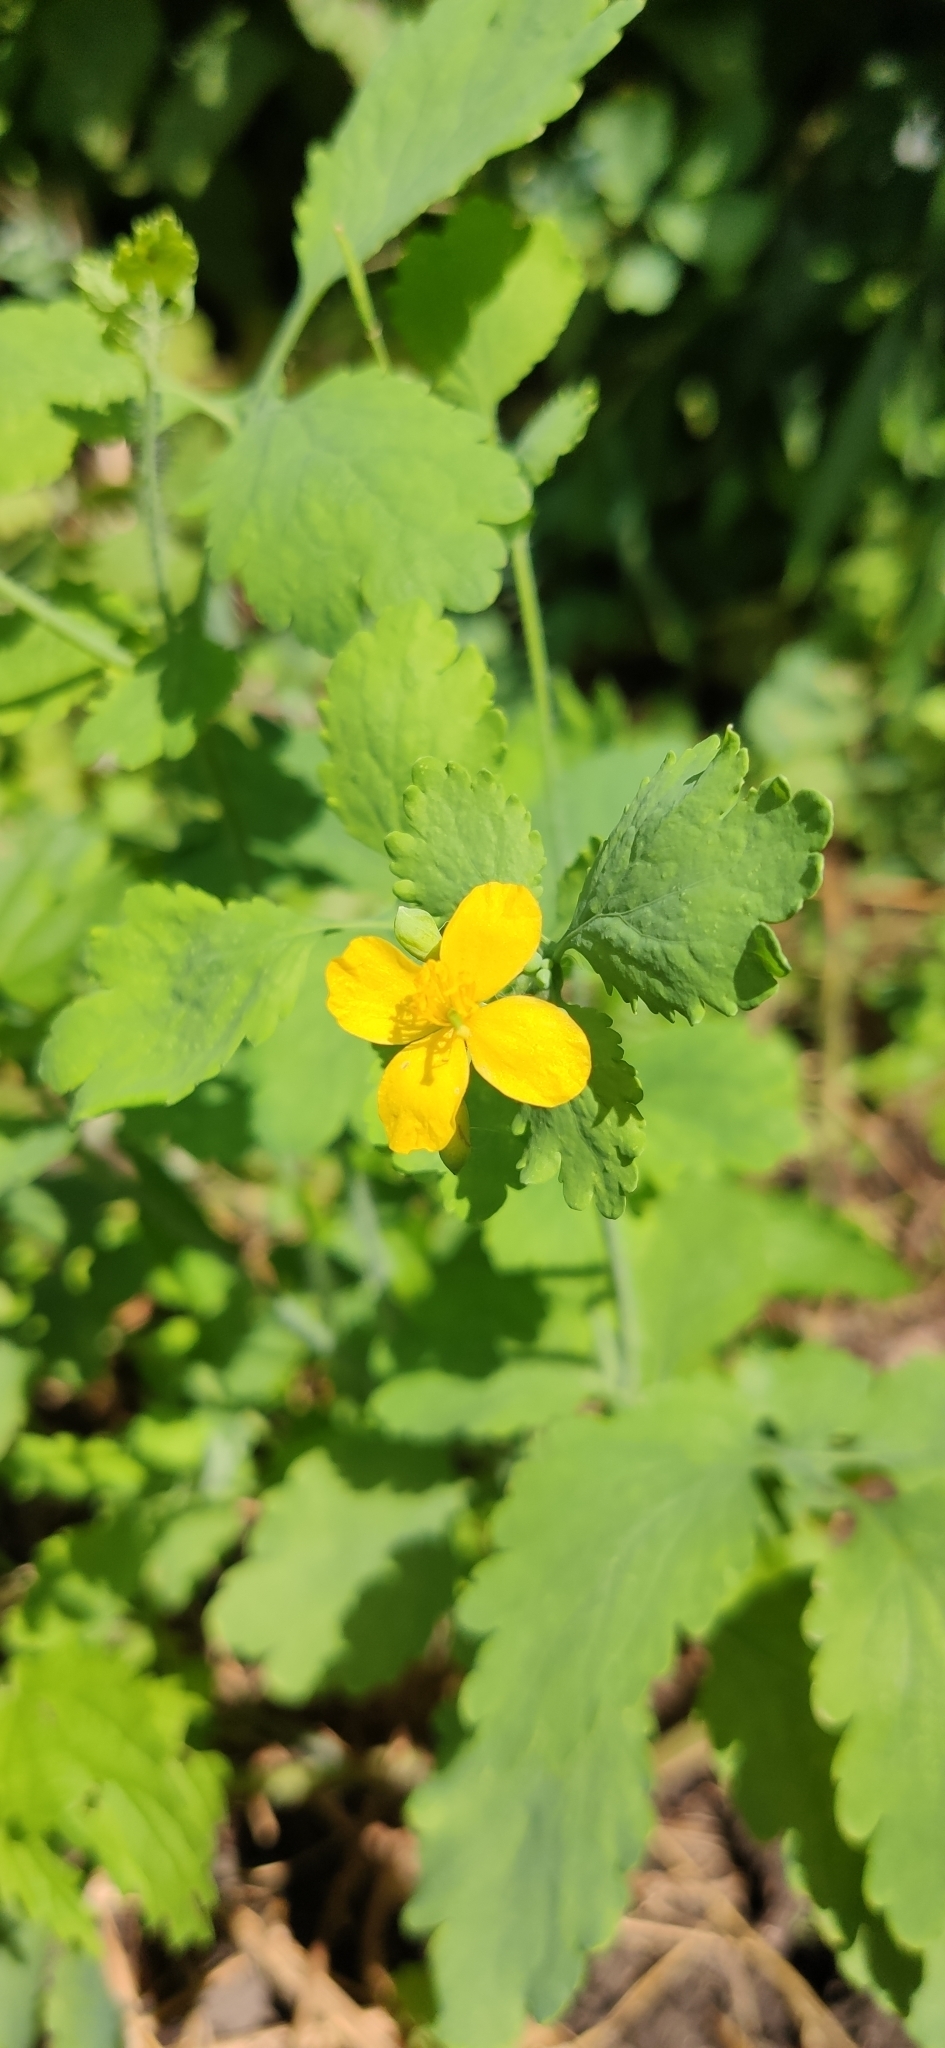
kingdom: Plantae
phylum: Tracheophyta
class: Magnoliopsida
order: Ranunculales
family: Papaveraceae
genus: Chelidonium
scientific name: Chelidonium majus
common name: Greater celandine
